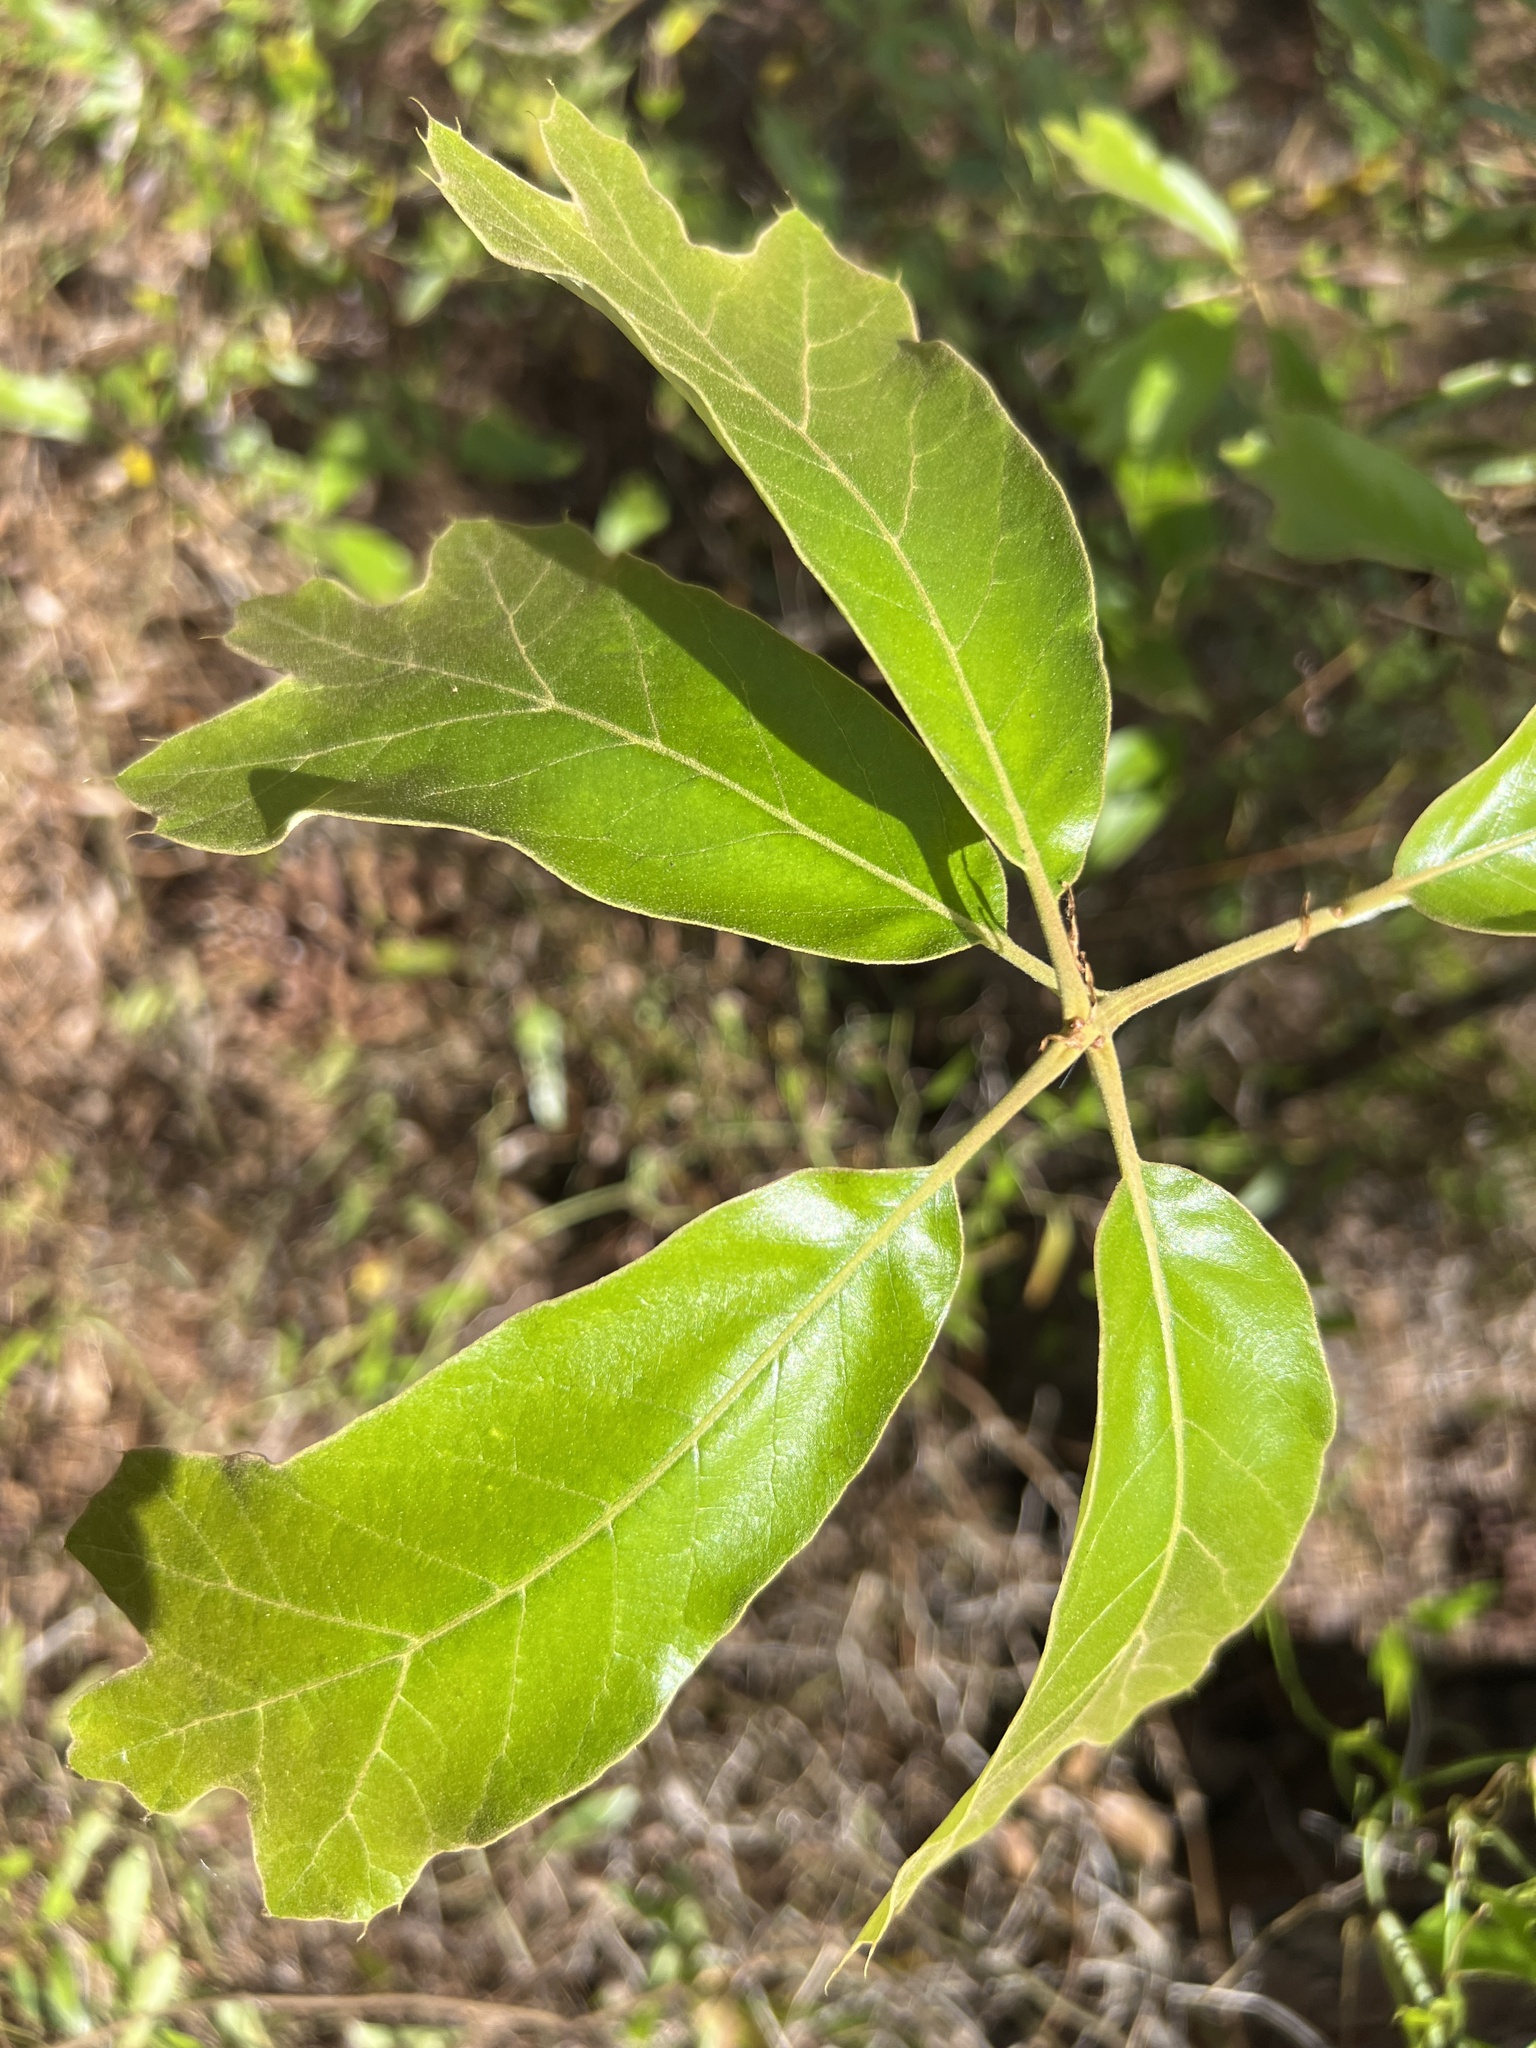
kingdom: Plantae
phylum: Tracheophyta
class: Magnoliopsida
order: Fagales
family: Fagaceae
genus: Quercus
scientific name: Quercus falcata
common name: Southern red oak
